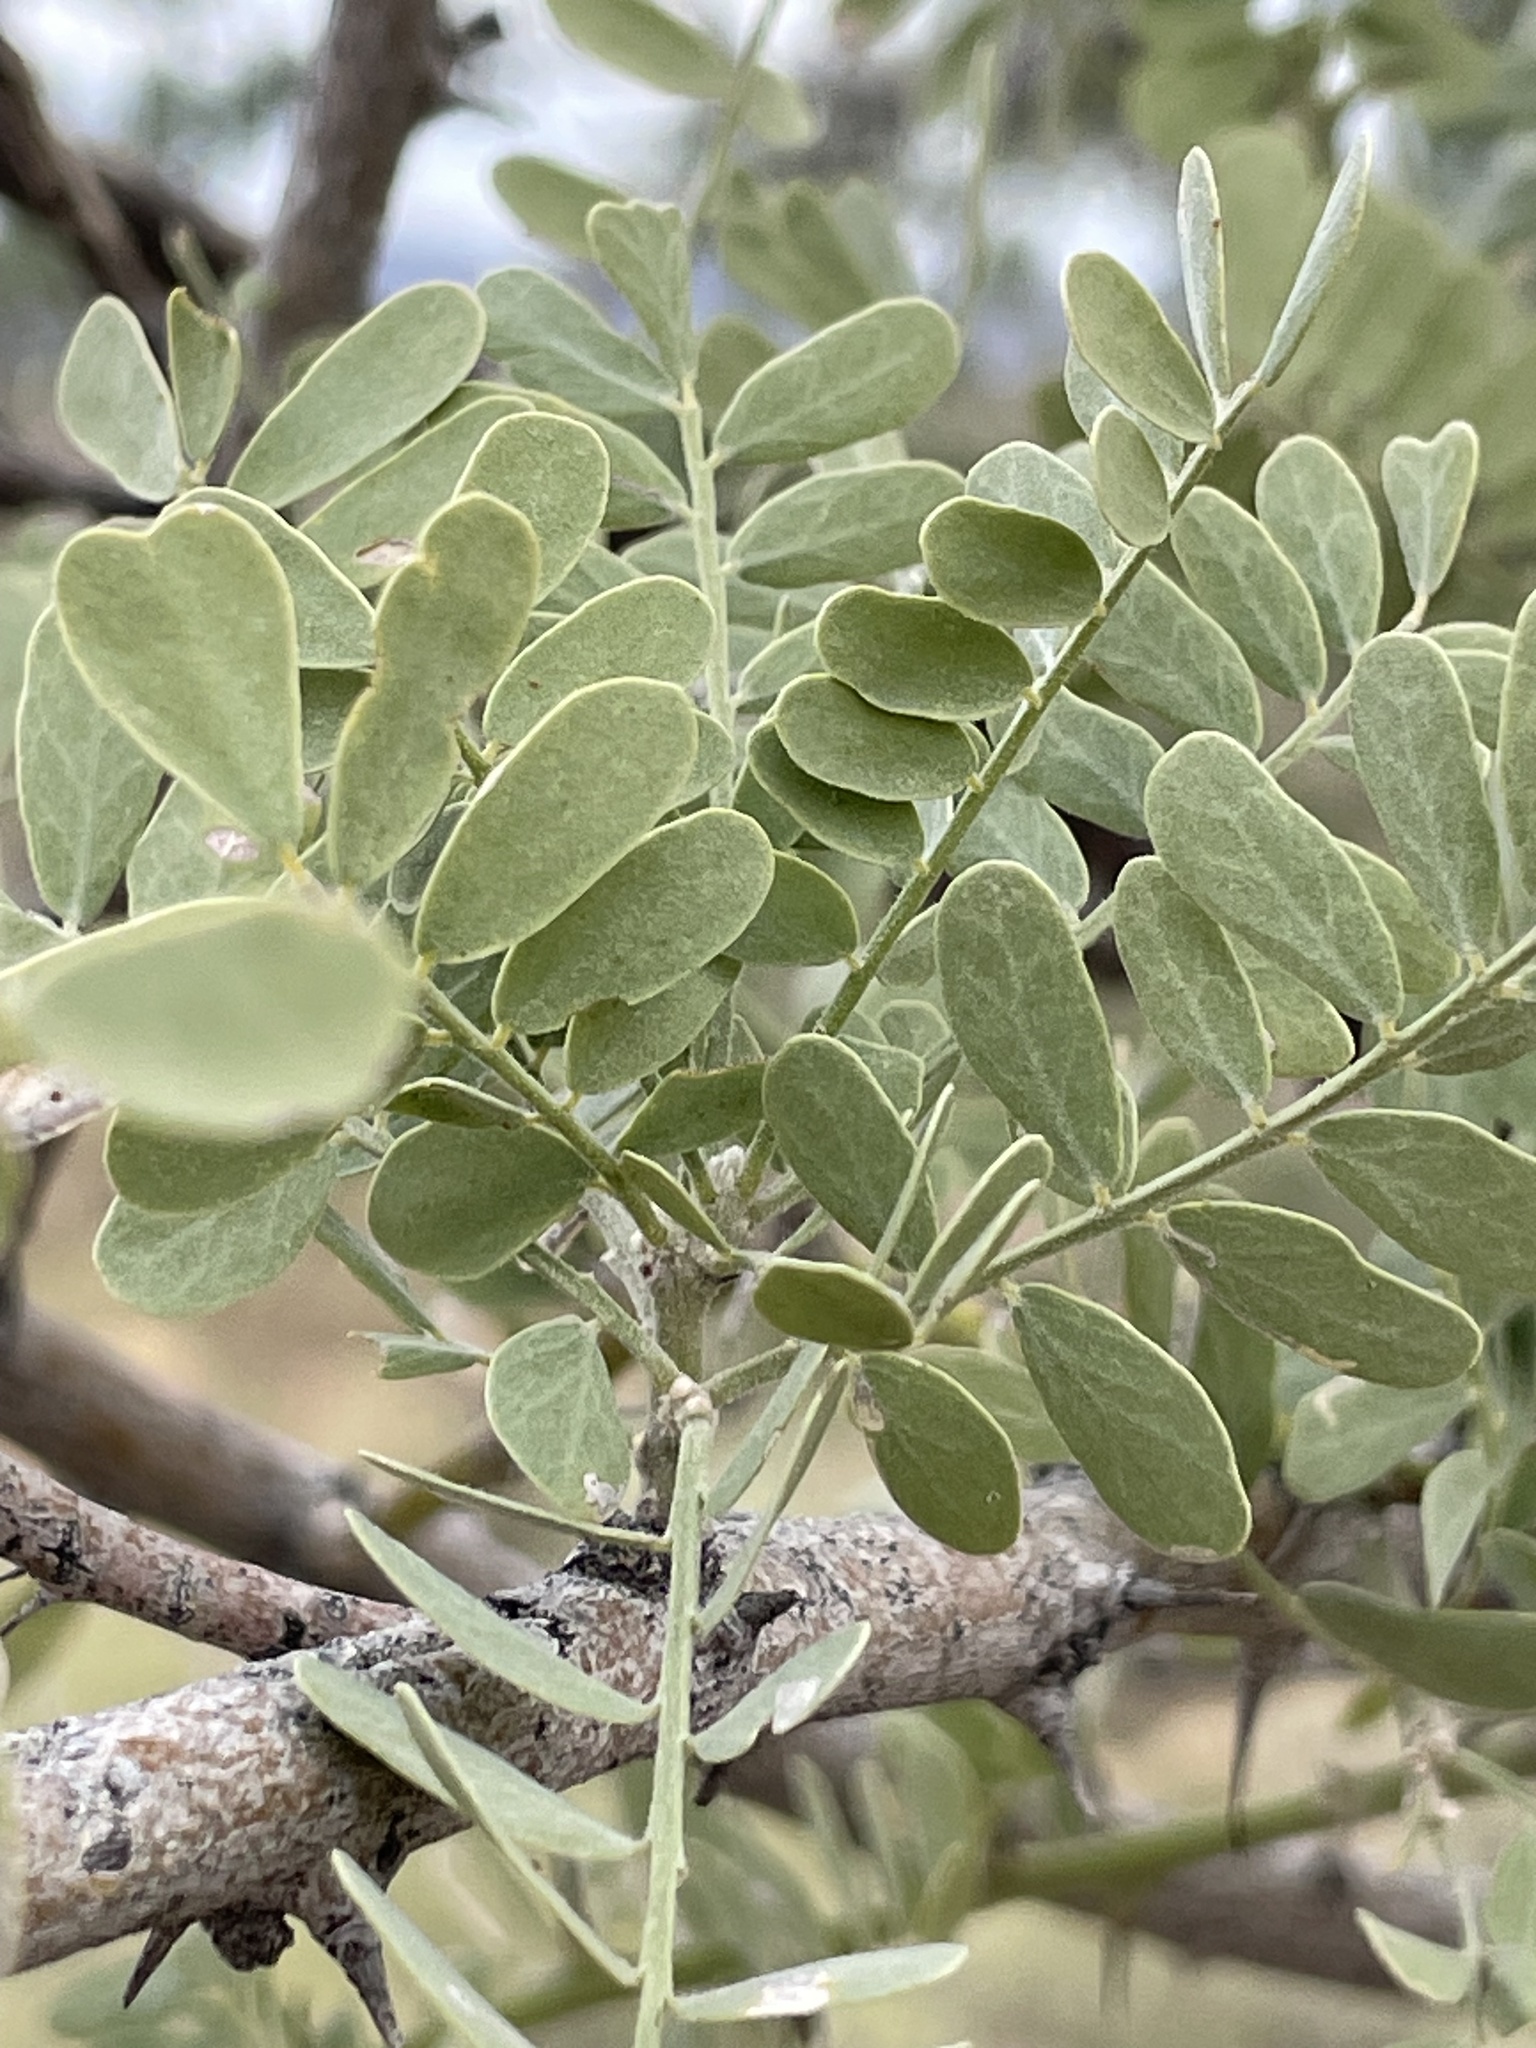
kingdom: Plantae
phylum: Tracheophyta
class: Magnoliopsida
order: Fabales
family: Fabaceae
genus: Olneya
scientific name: Olneya tesota
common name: Desert ironwood
